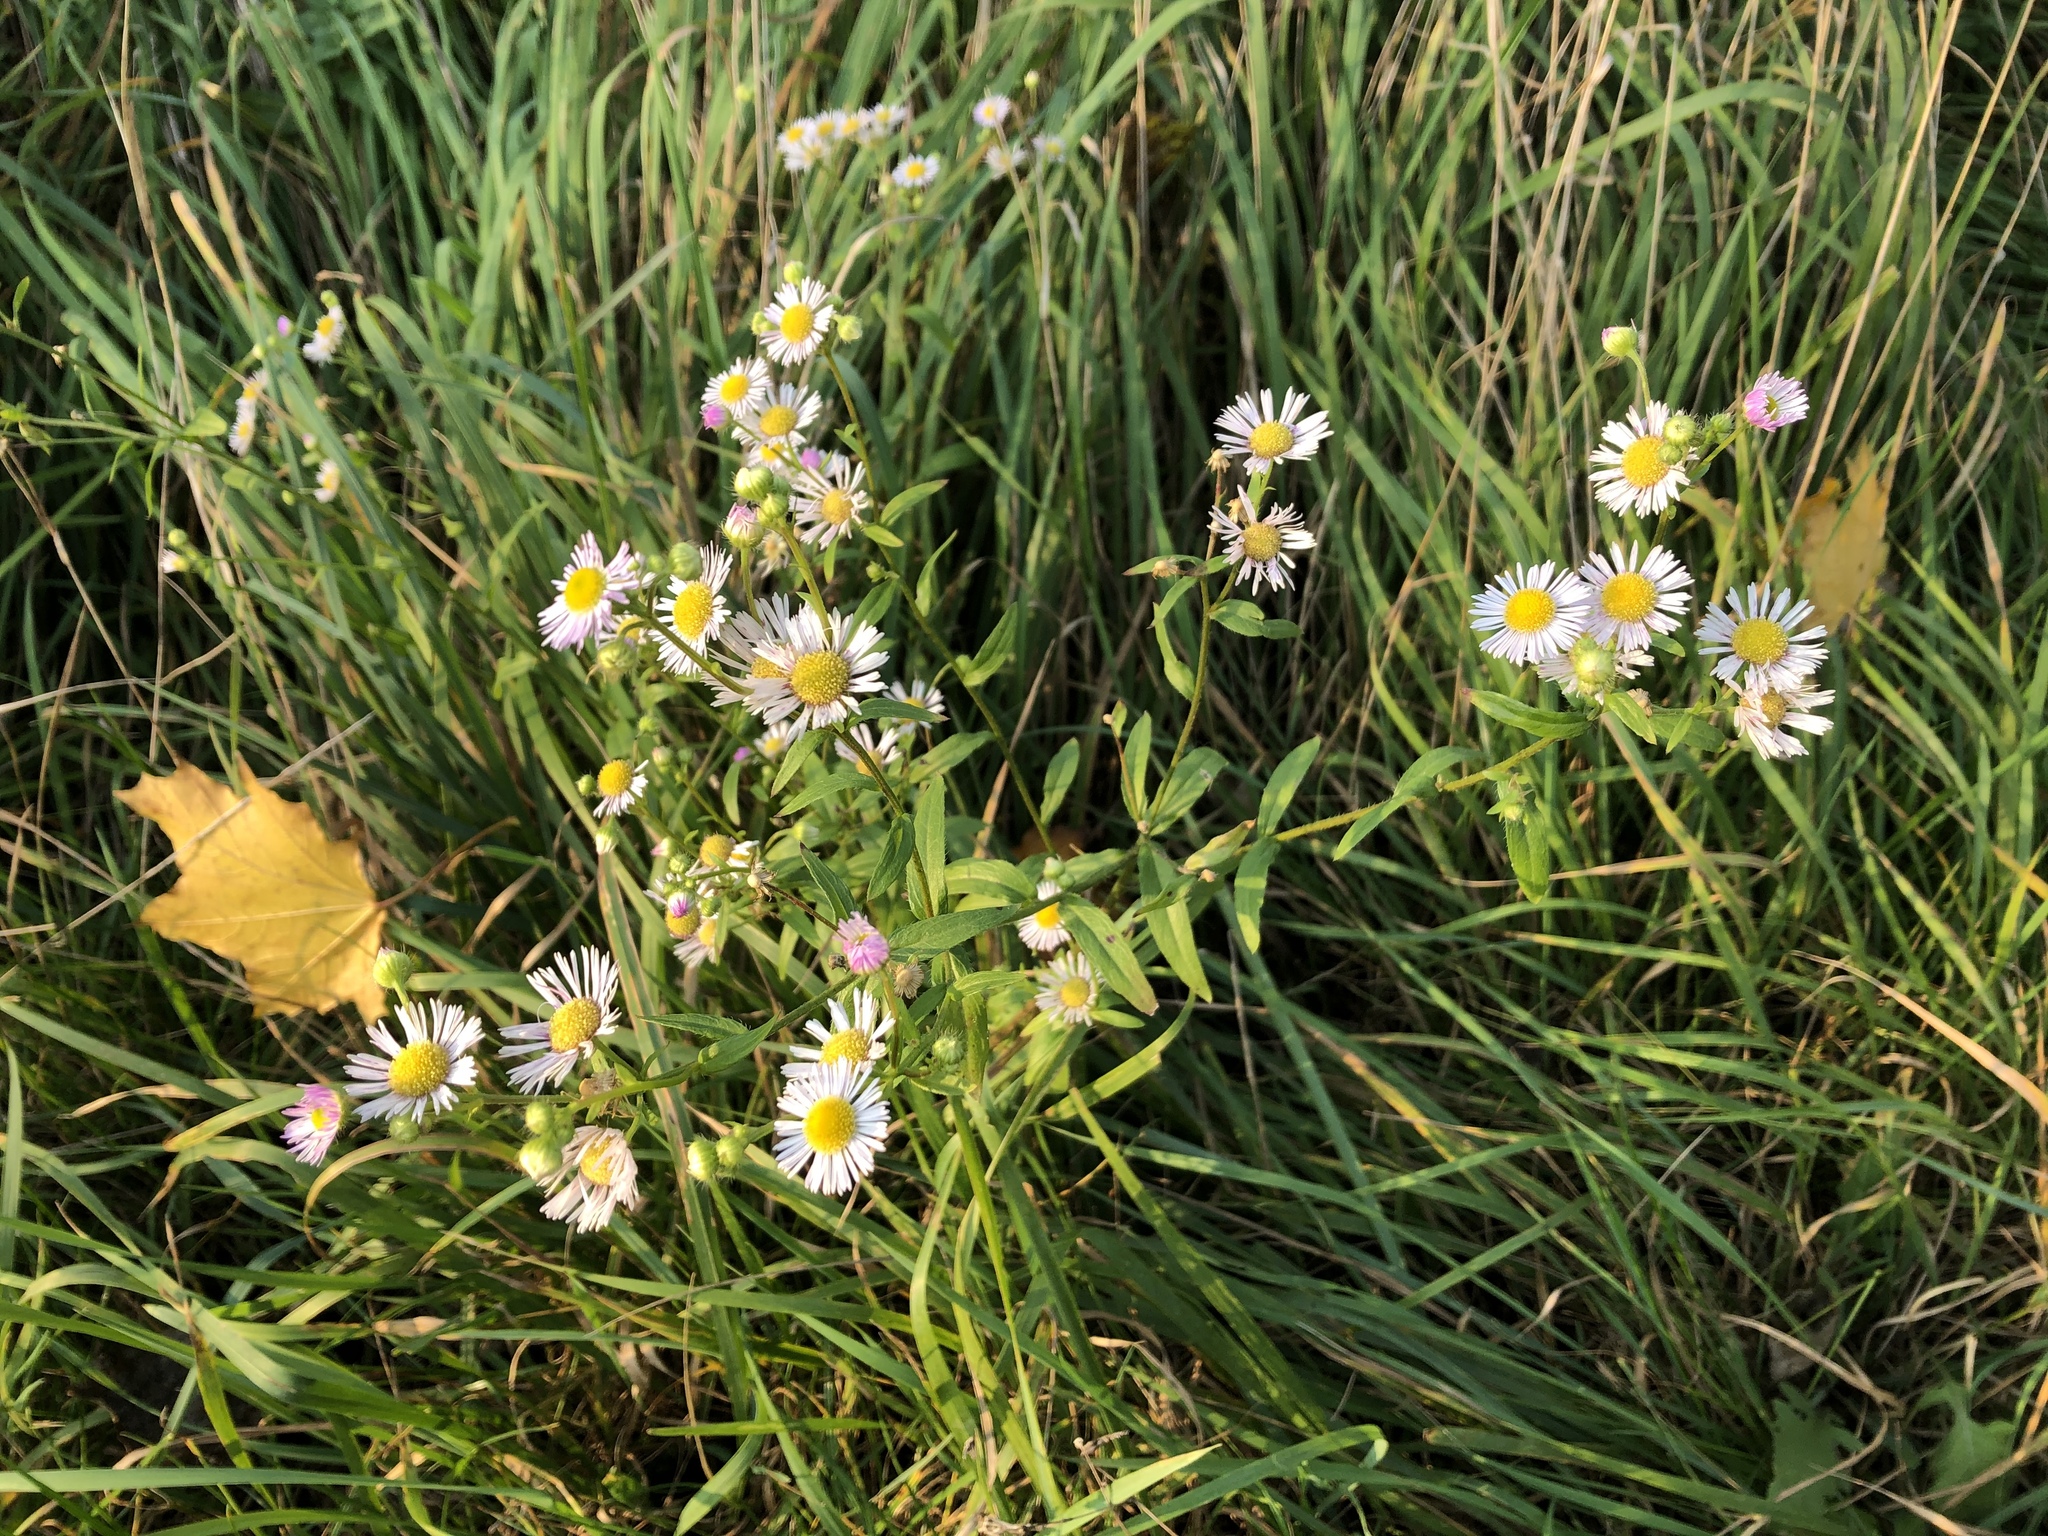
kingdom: Plantae
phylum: Tracheophyta
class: Magnoliopsida
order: Asterales
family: Asteraceae
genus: Erigeron
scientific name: Erigeron annuus
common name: Tall fleabane
